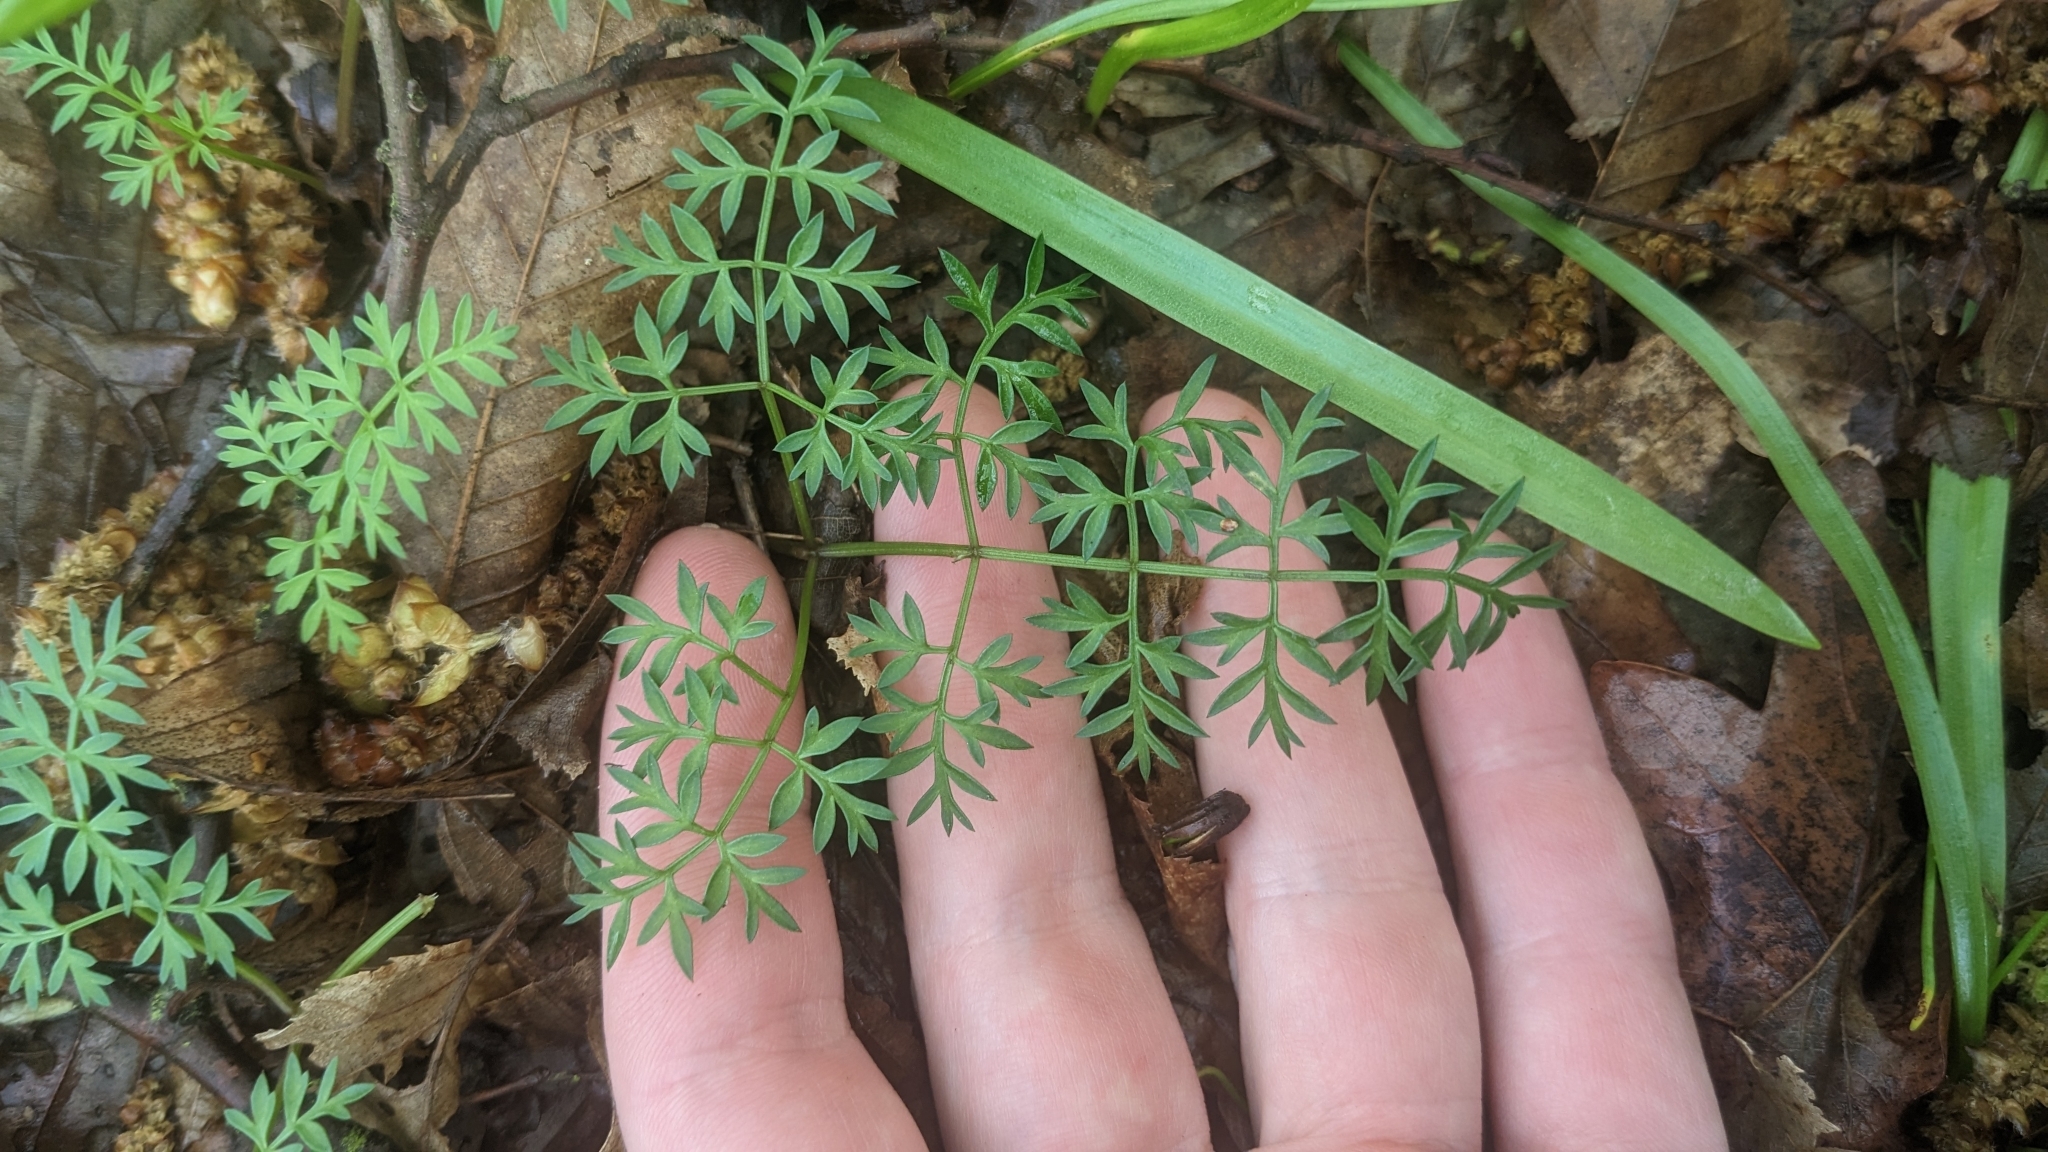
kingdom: Plantae
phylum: Tracheophyta
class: Magnoliopsida
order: Apiales
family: Apiaceae
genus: Conopodium
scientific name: Conopodium majus
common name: Pignut
